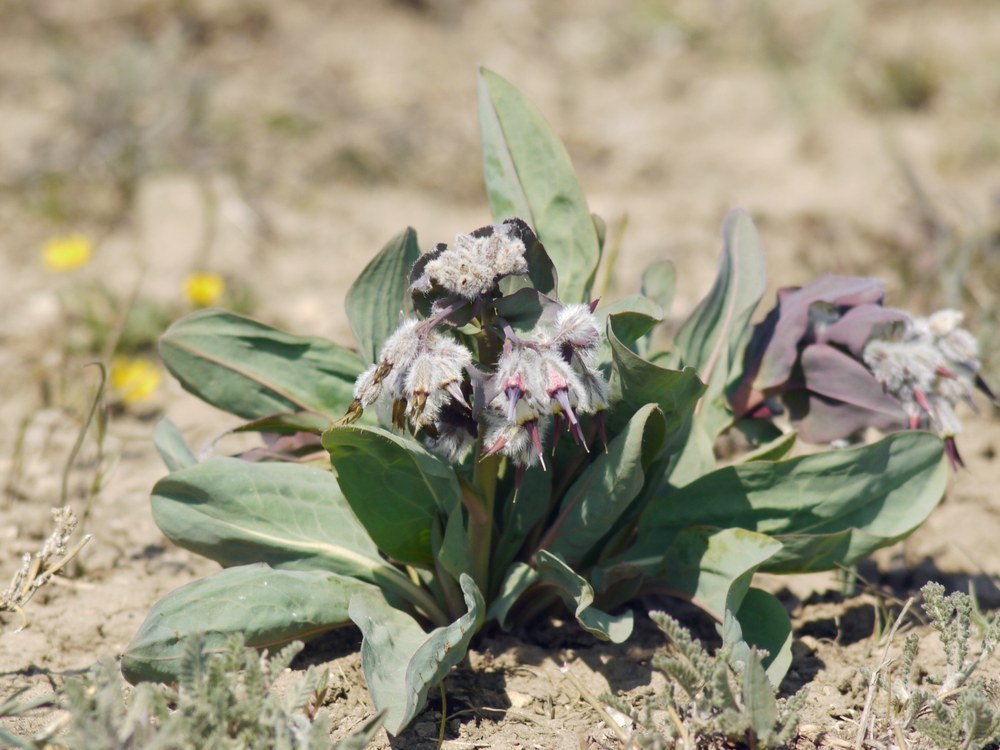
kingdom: Plantae
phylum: Tracheophyta
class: Magnoliopsida
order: Boraginales
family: Boraginaceae
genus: Rindera
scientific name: Rindera tetraspis
